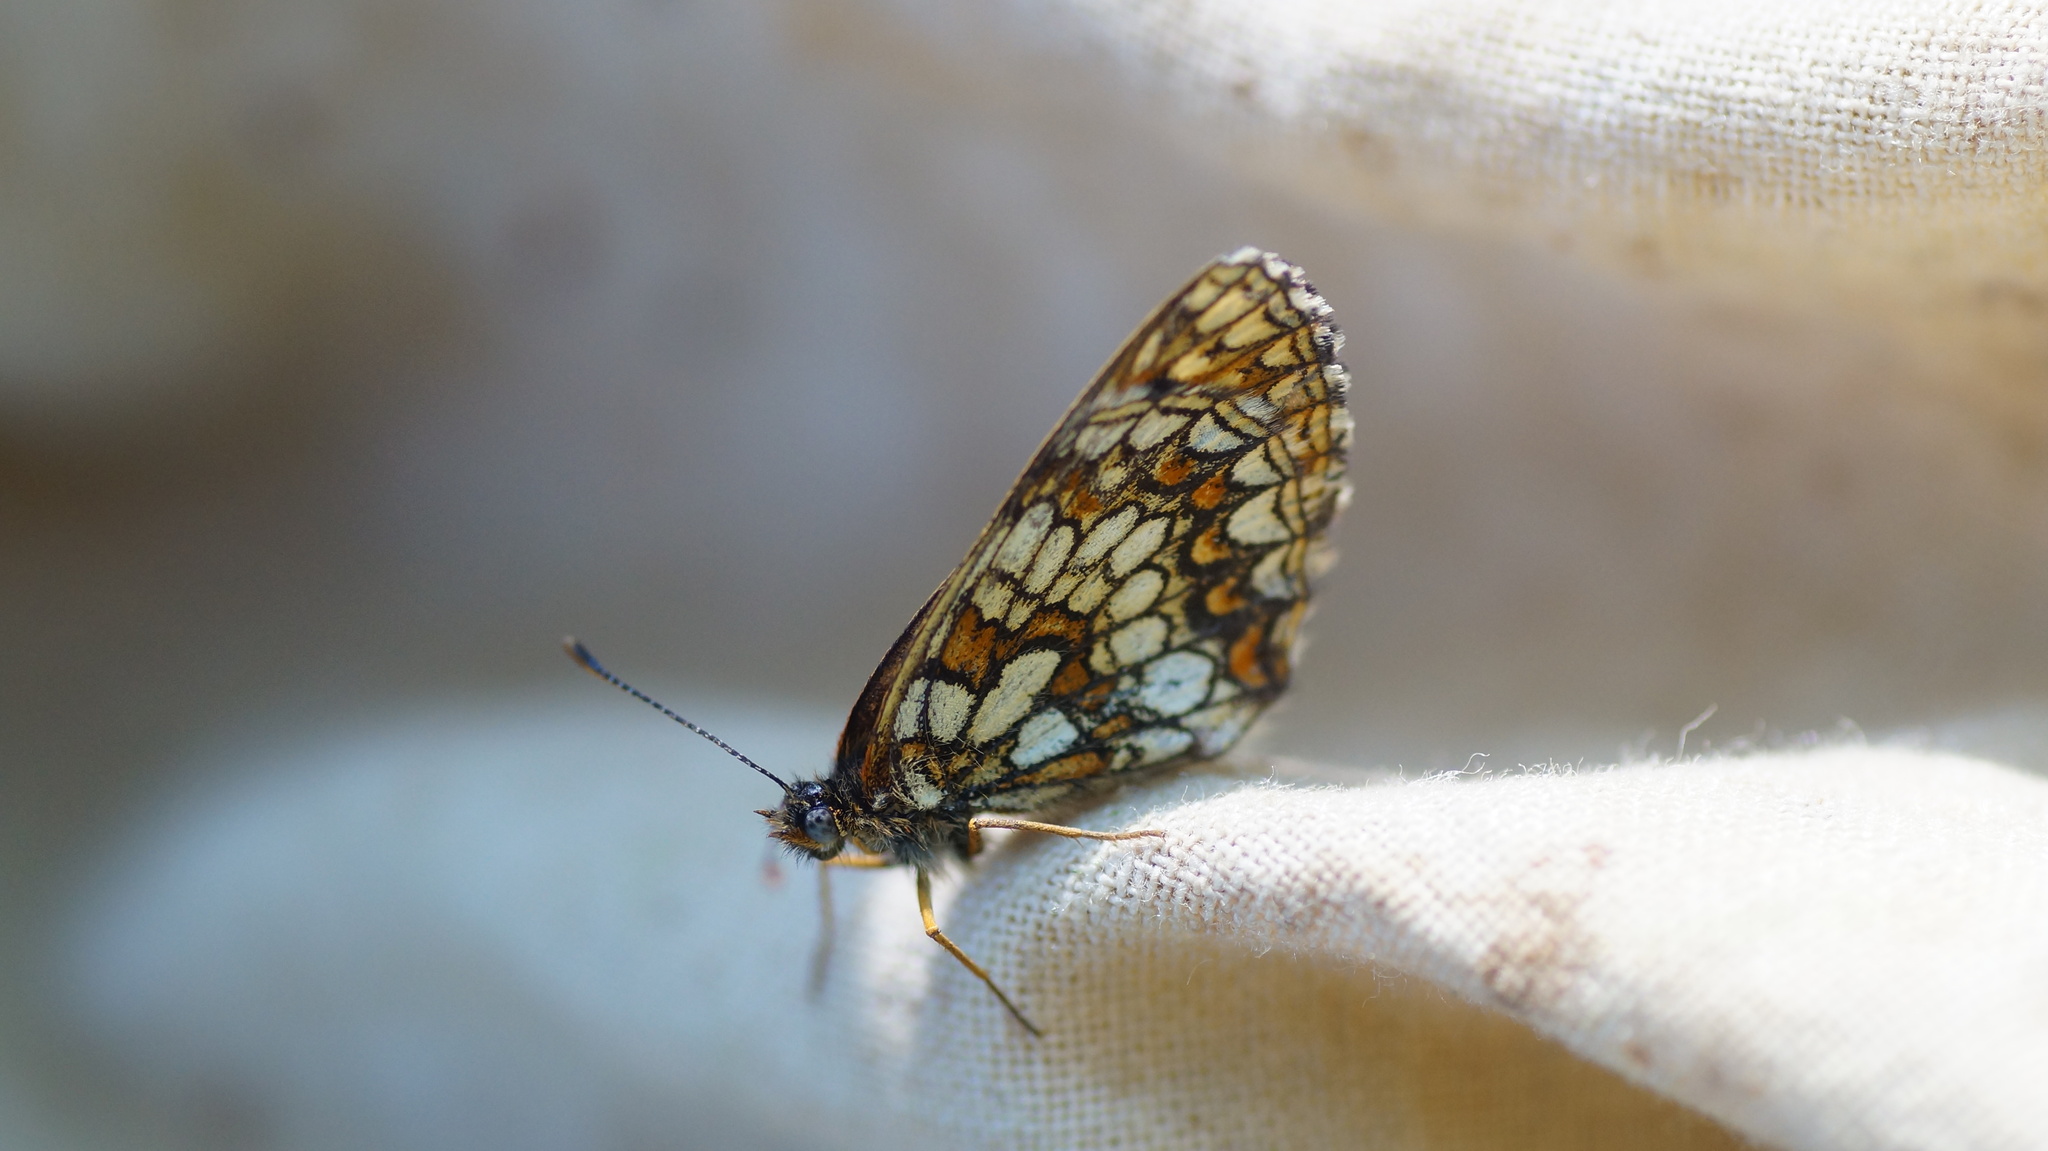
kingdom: Animalia
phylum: Arthropoda
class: Insecta
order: Lepidoptera
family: Nymphalidae
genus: Melitaea
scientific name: Melitaea
